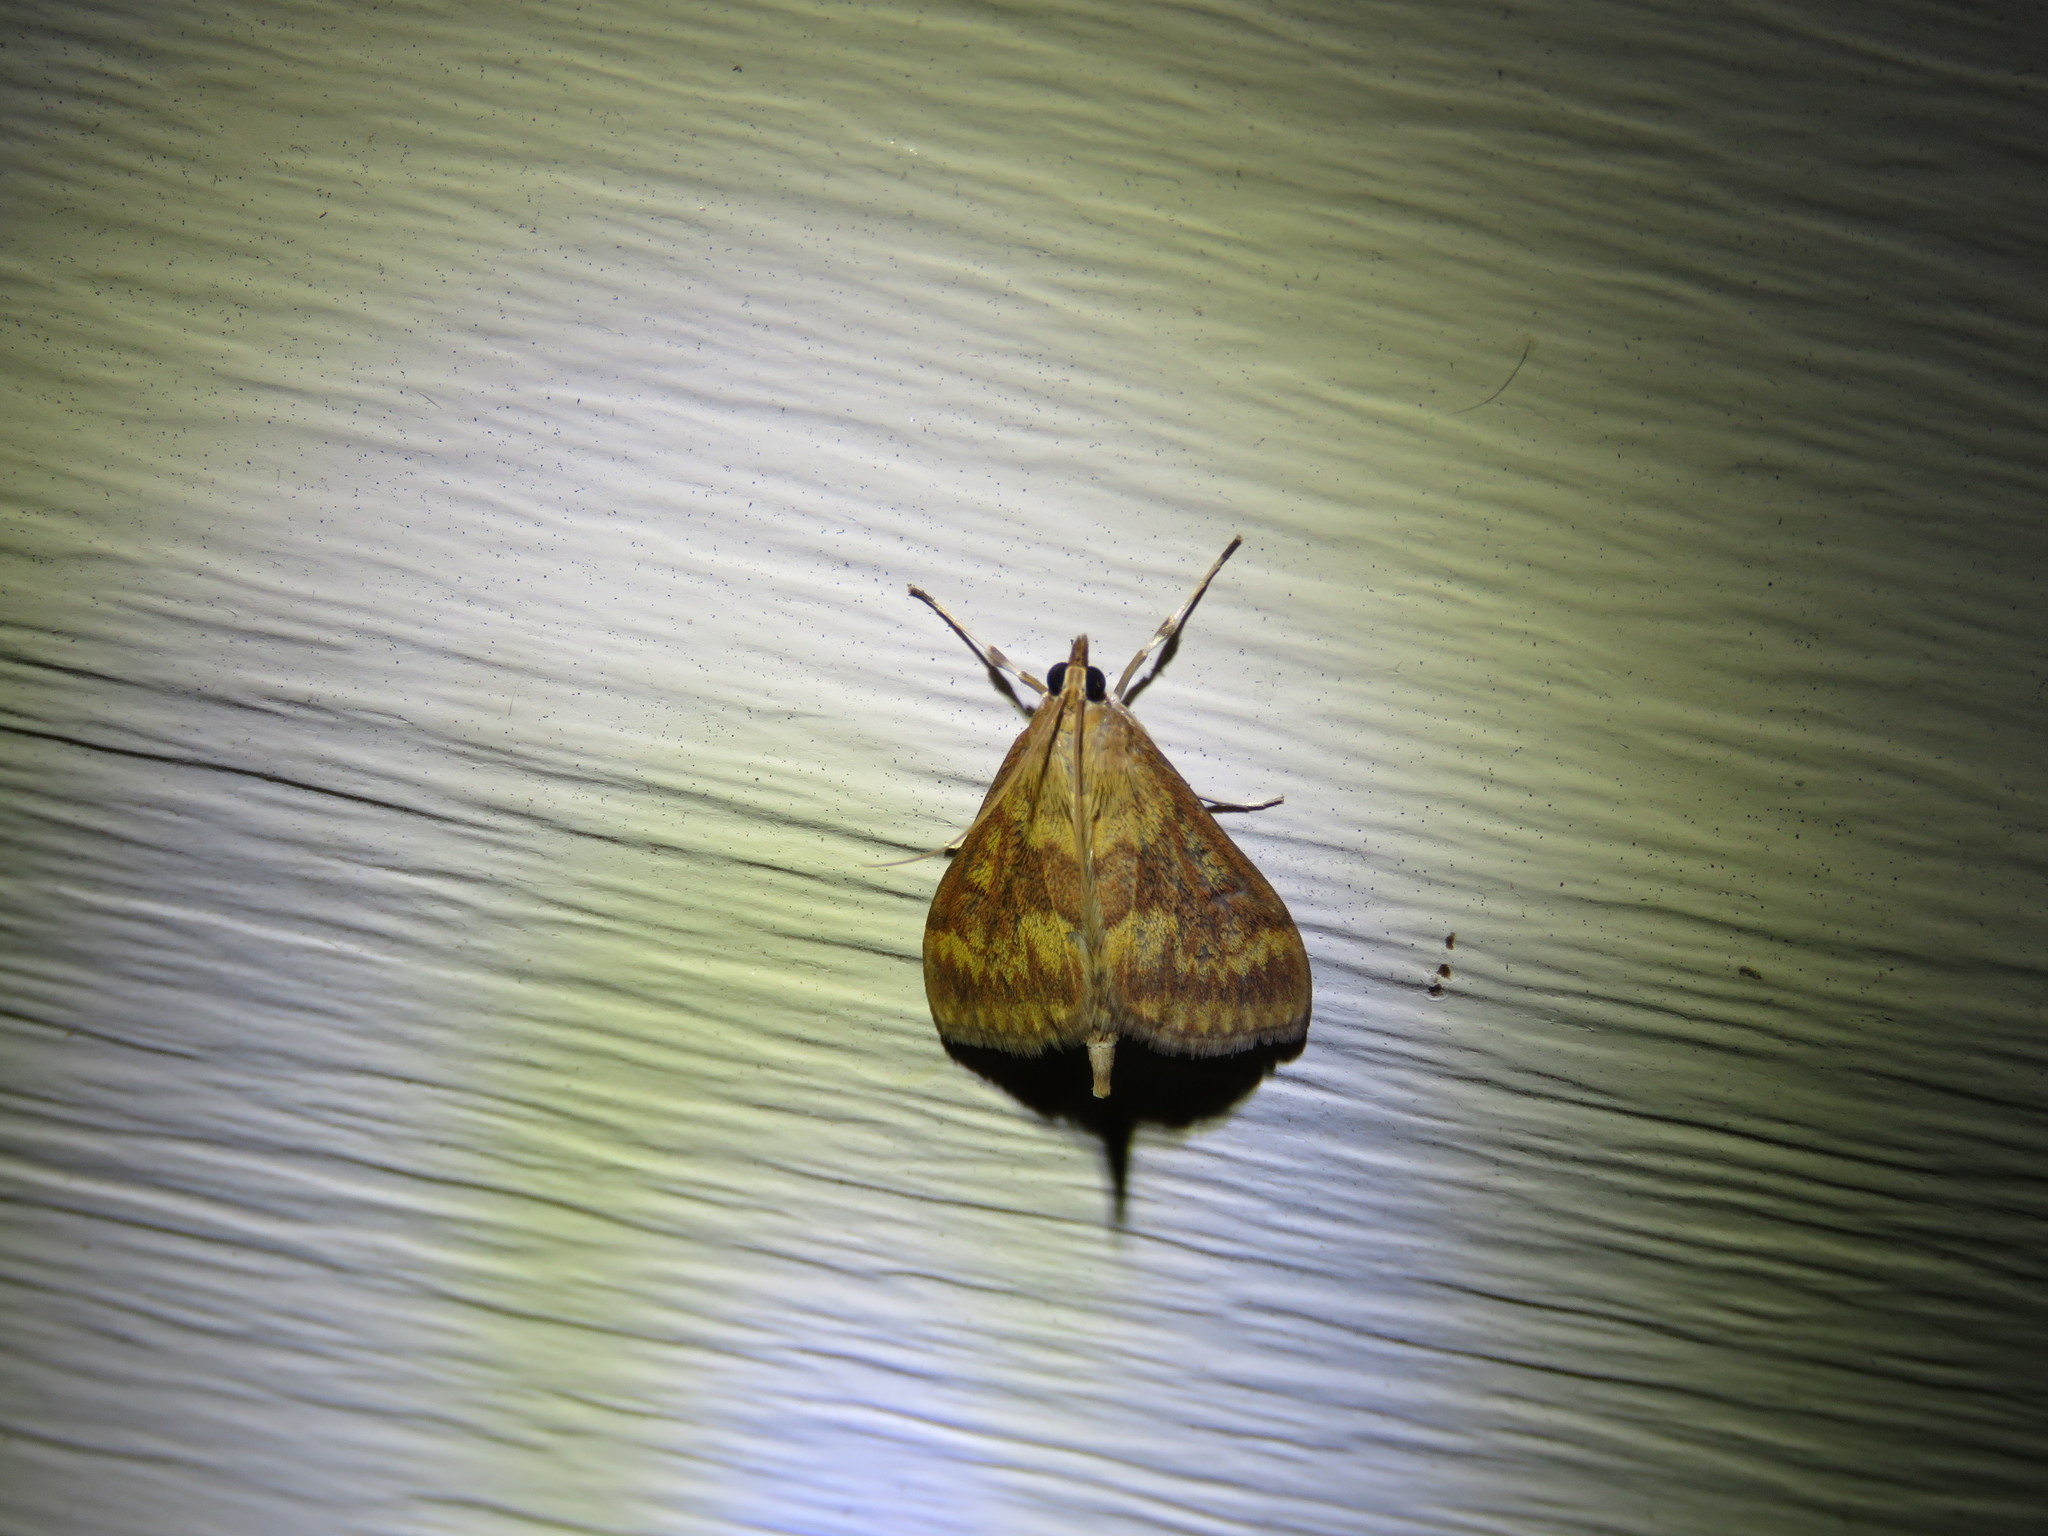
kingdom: Animalia
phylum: Arthropoda
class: Insecta
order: Lepidoptera
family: Crambidae
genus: Ostrinia
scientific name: Ostrinia nubilalis
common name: European corn borer
